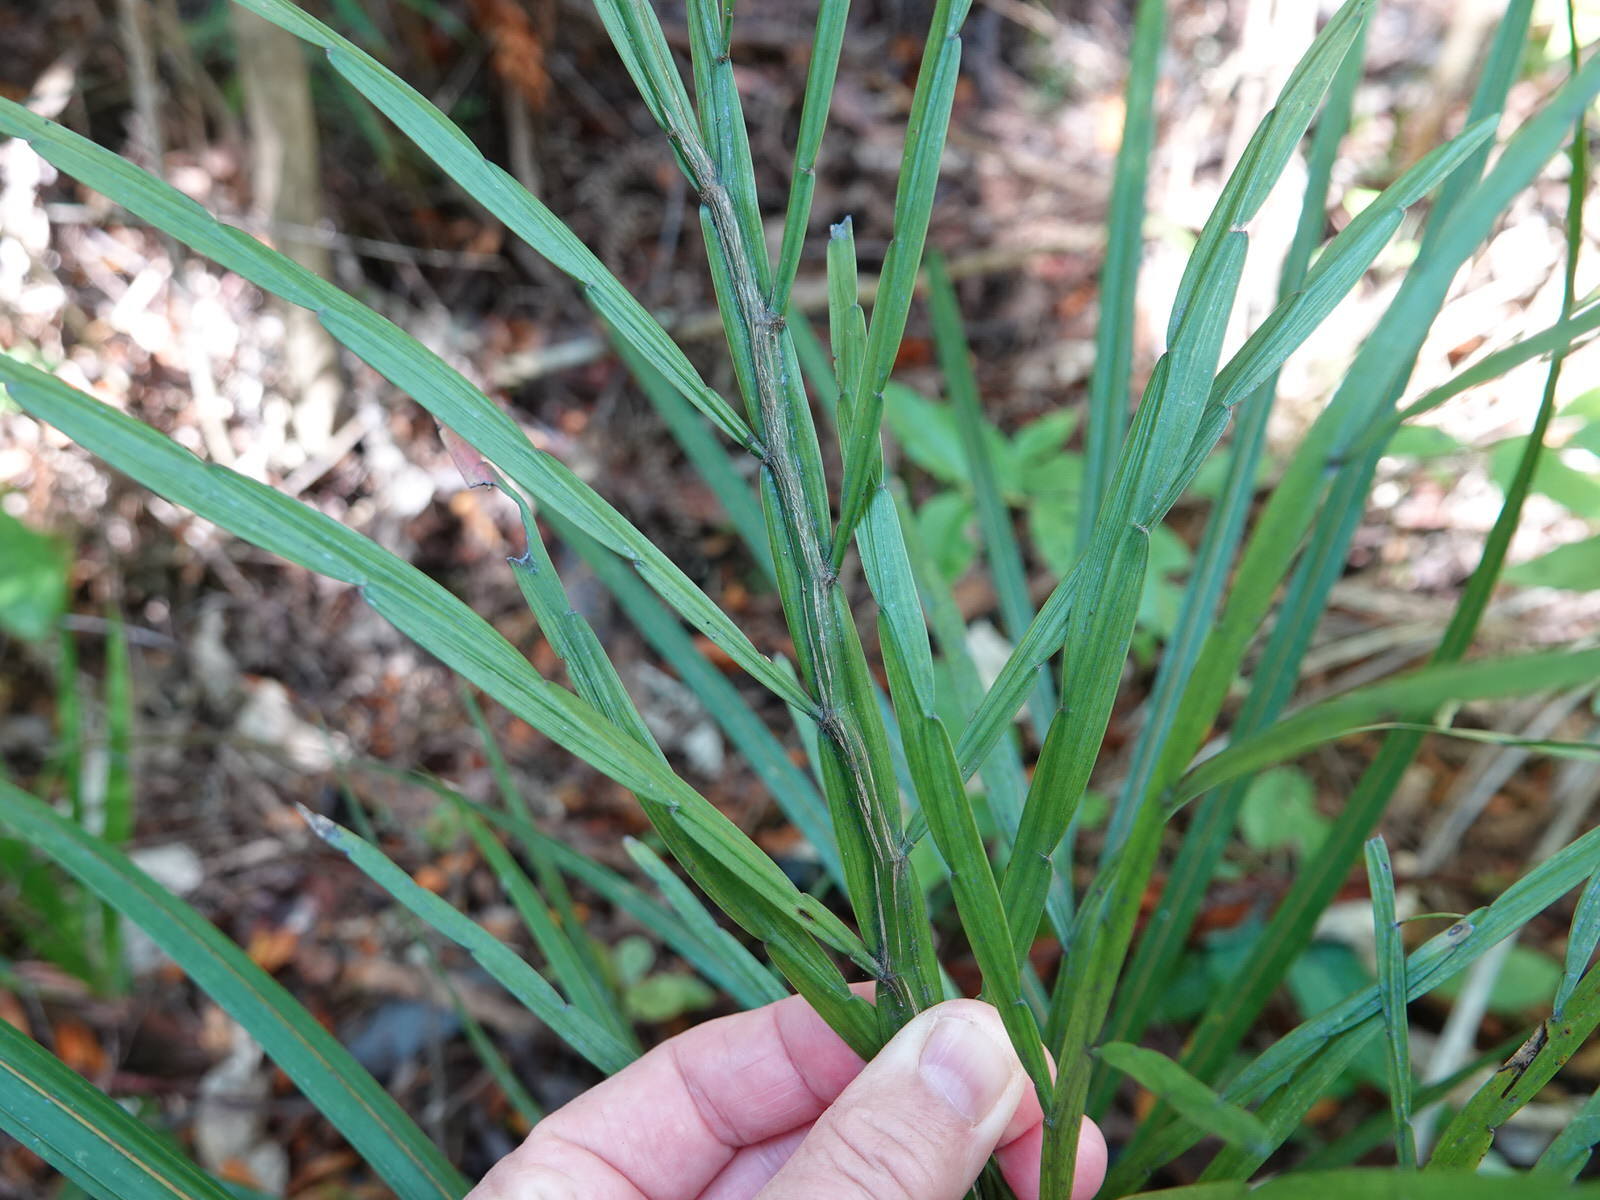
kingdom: Plantae
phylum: Tracheophyta
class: Magnoliopsida
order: Fabales
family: Fabaceae
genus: Carmichaelia
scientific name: Carmichaelia australis
